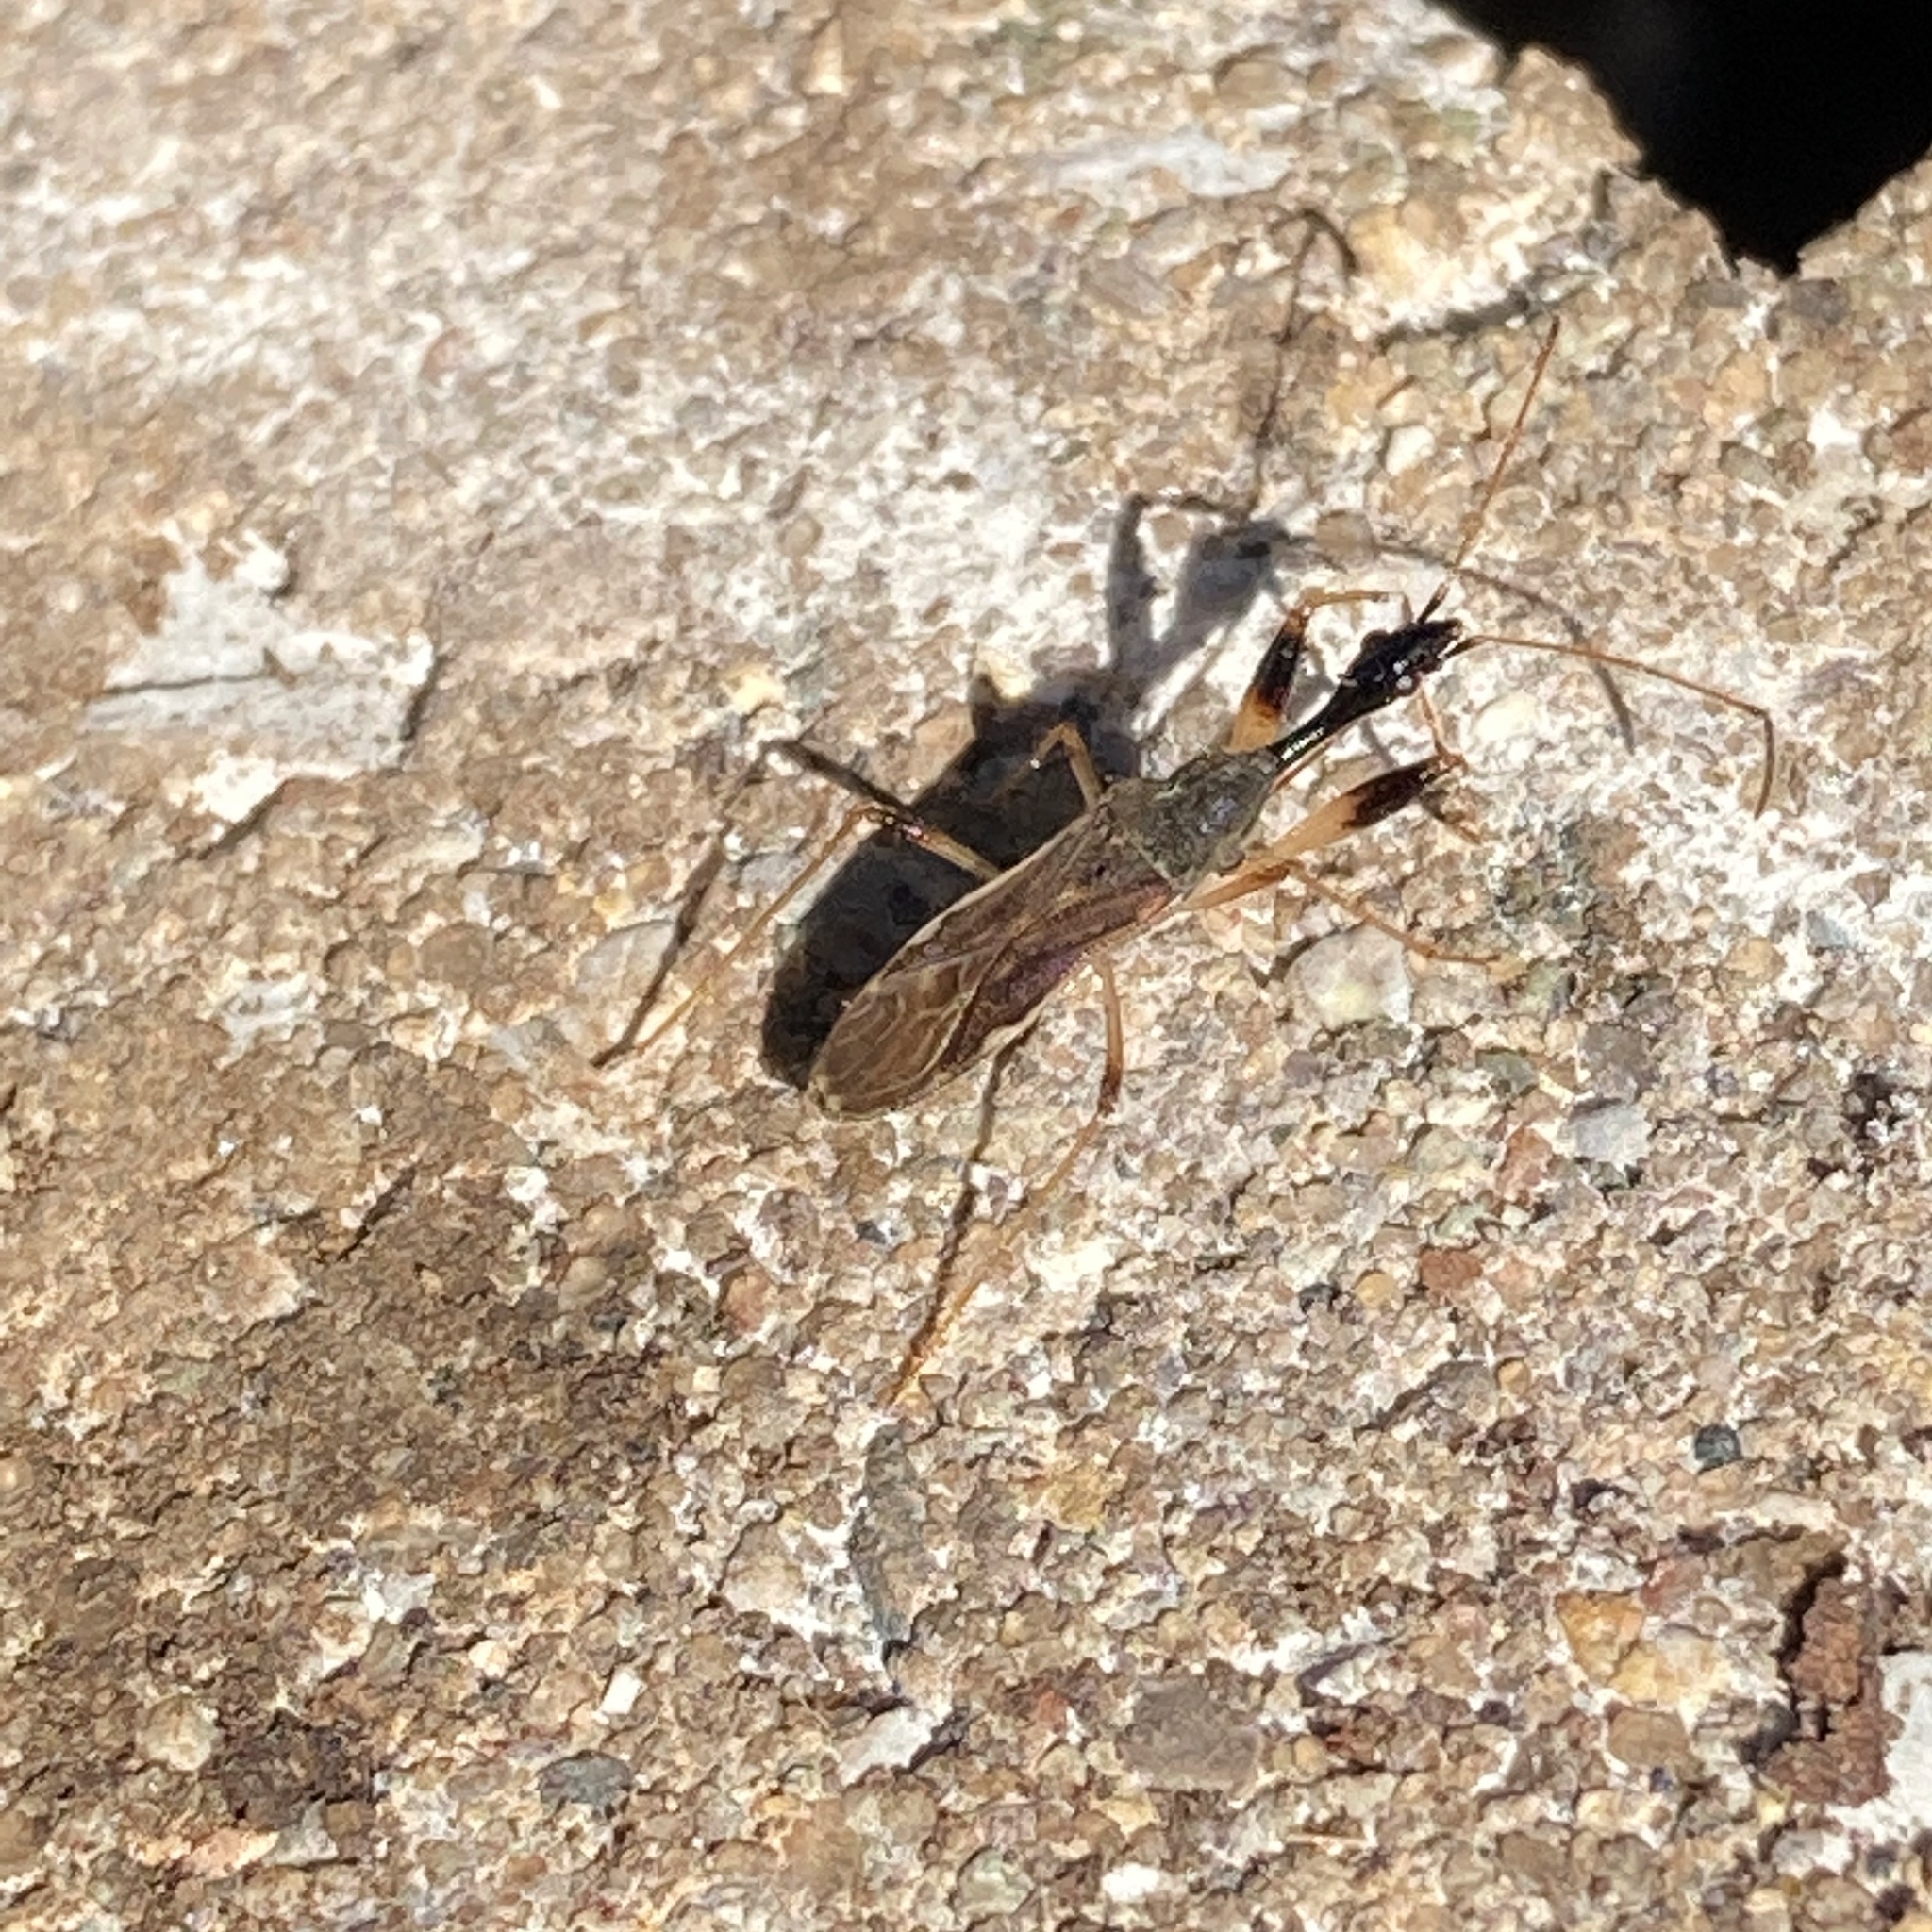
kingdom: Animalia
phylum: Arthropoda
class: Insecta
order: Hemiptera
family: Rhyparochromidae
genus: Myodocha
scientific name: Myodocha serripes
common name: Long-necked seed bug
